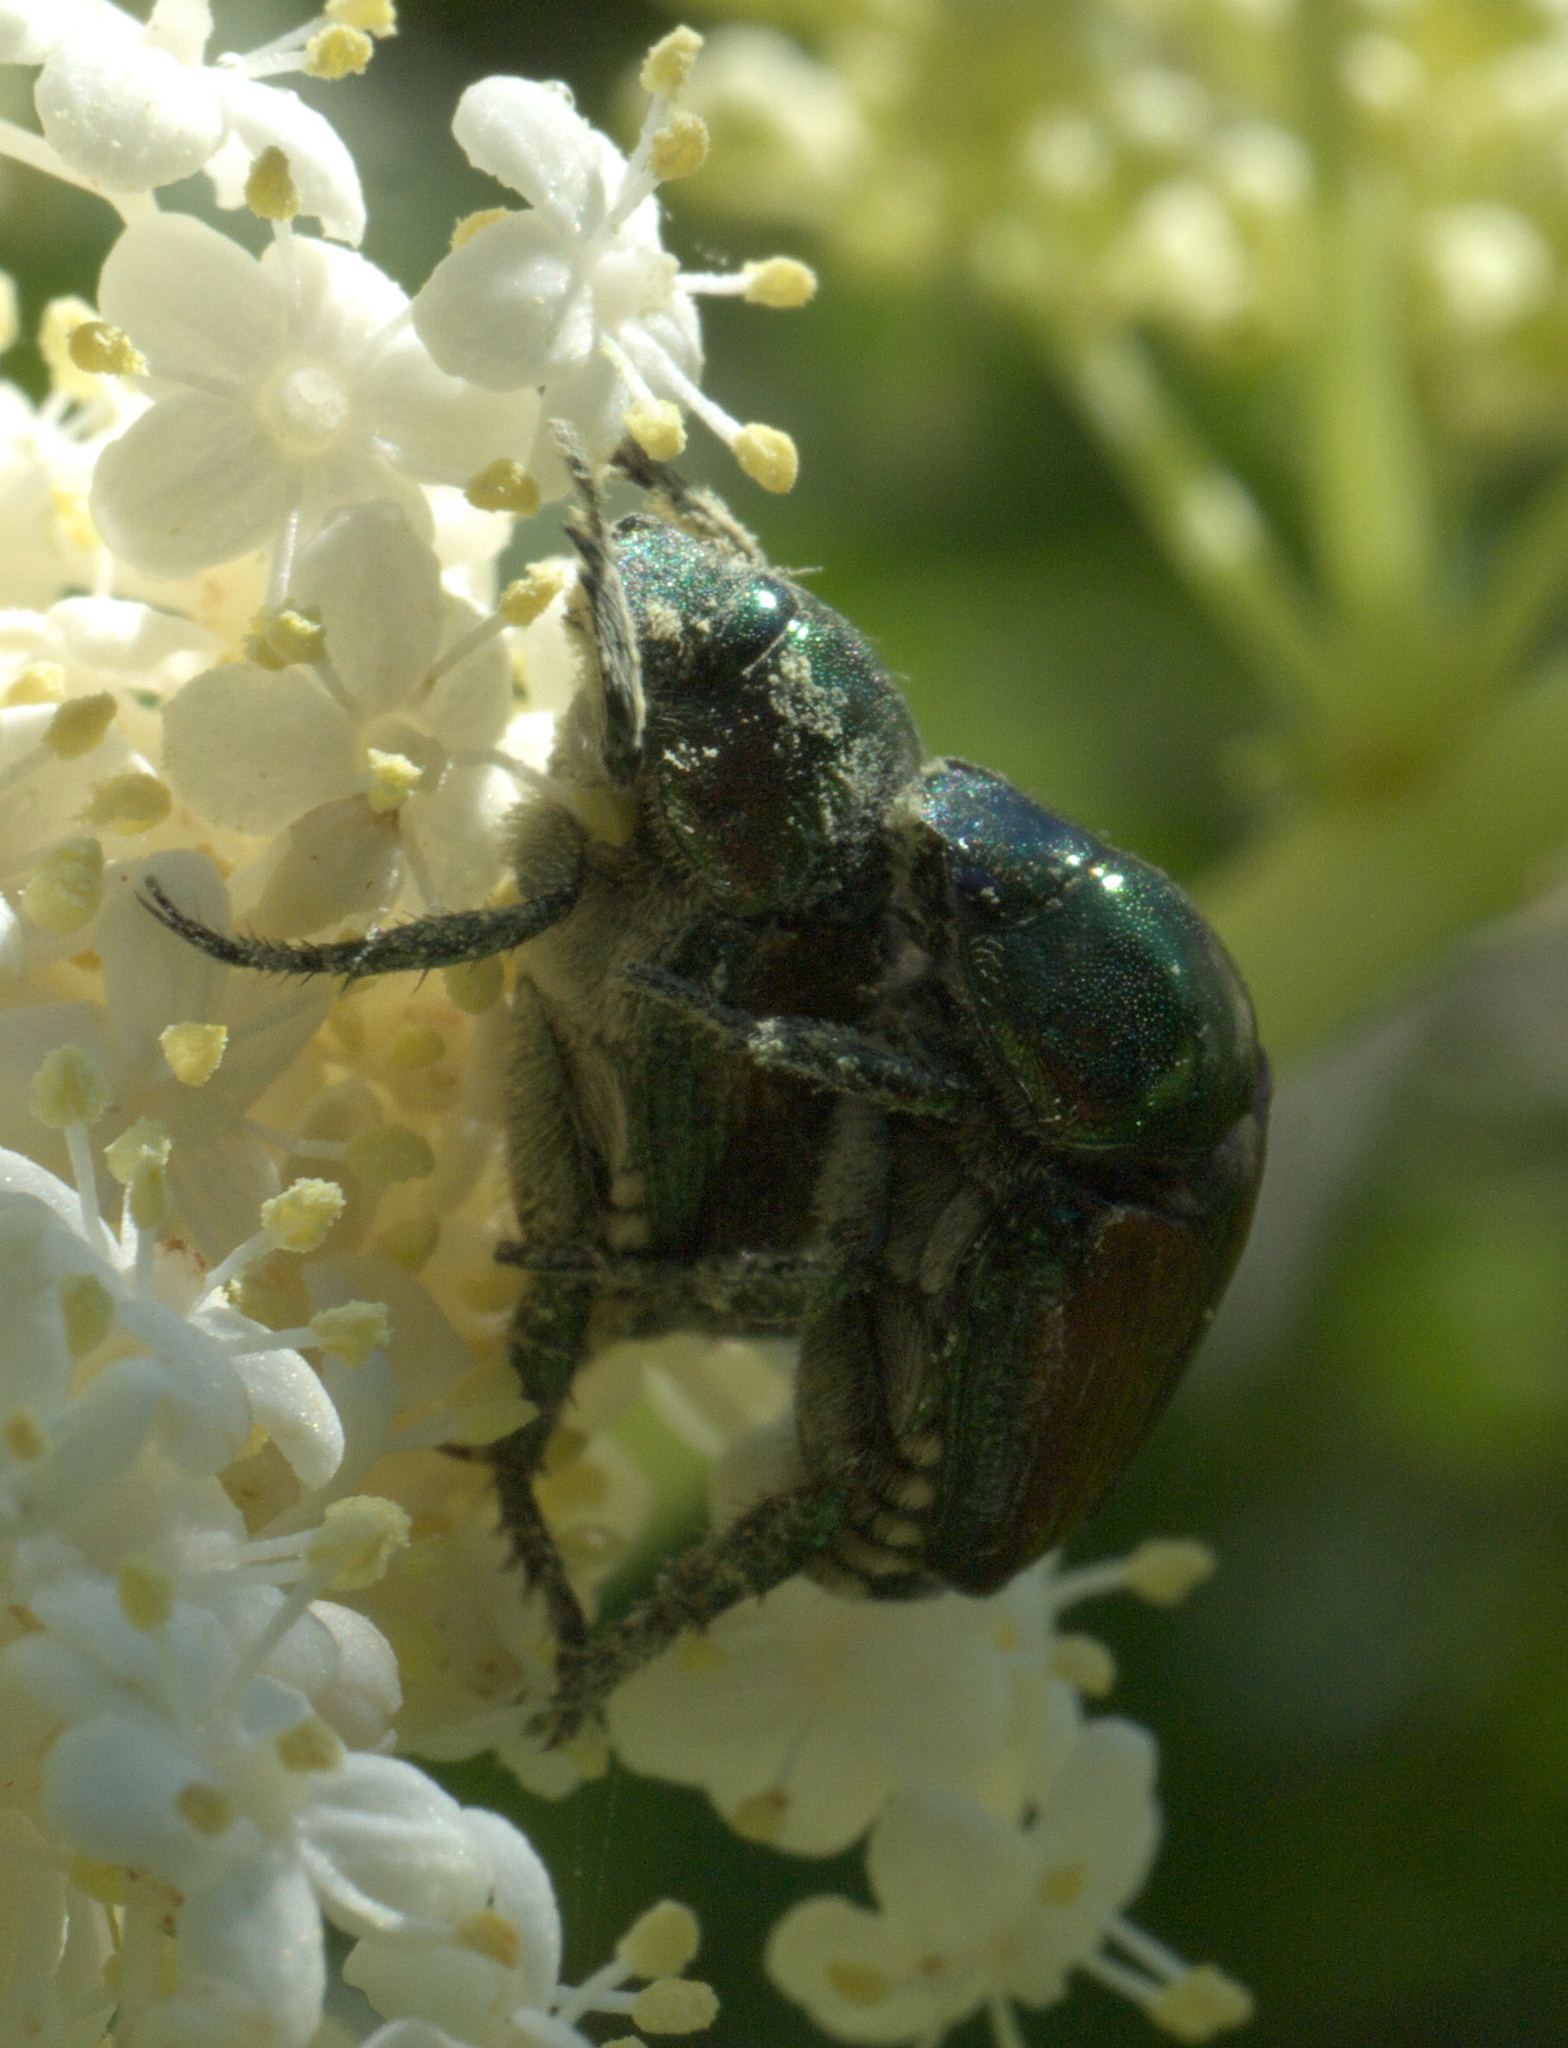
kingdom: Animalia
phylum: Arthropoda
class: Insecta
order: Coleoptera
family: Scarabaeidae
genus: Popillia
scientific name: Popillia japonica
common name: Japanese beetle
